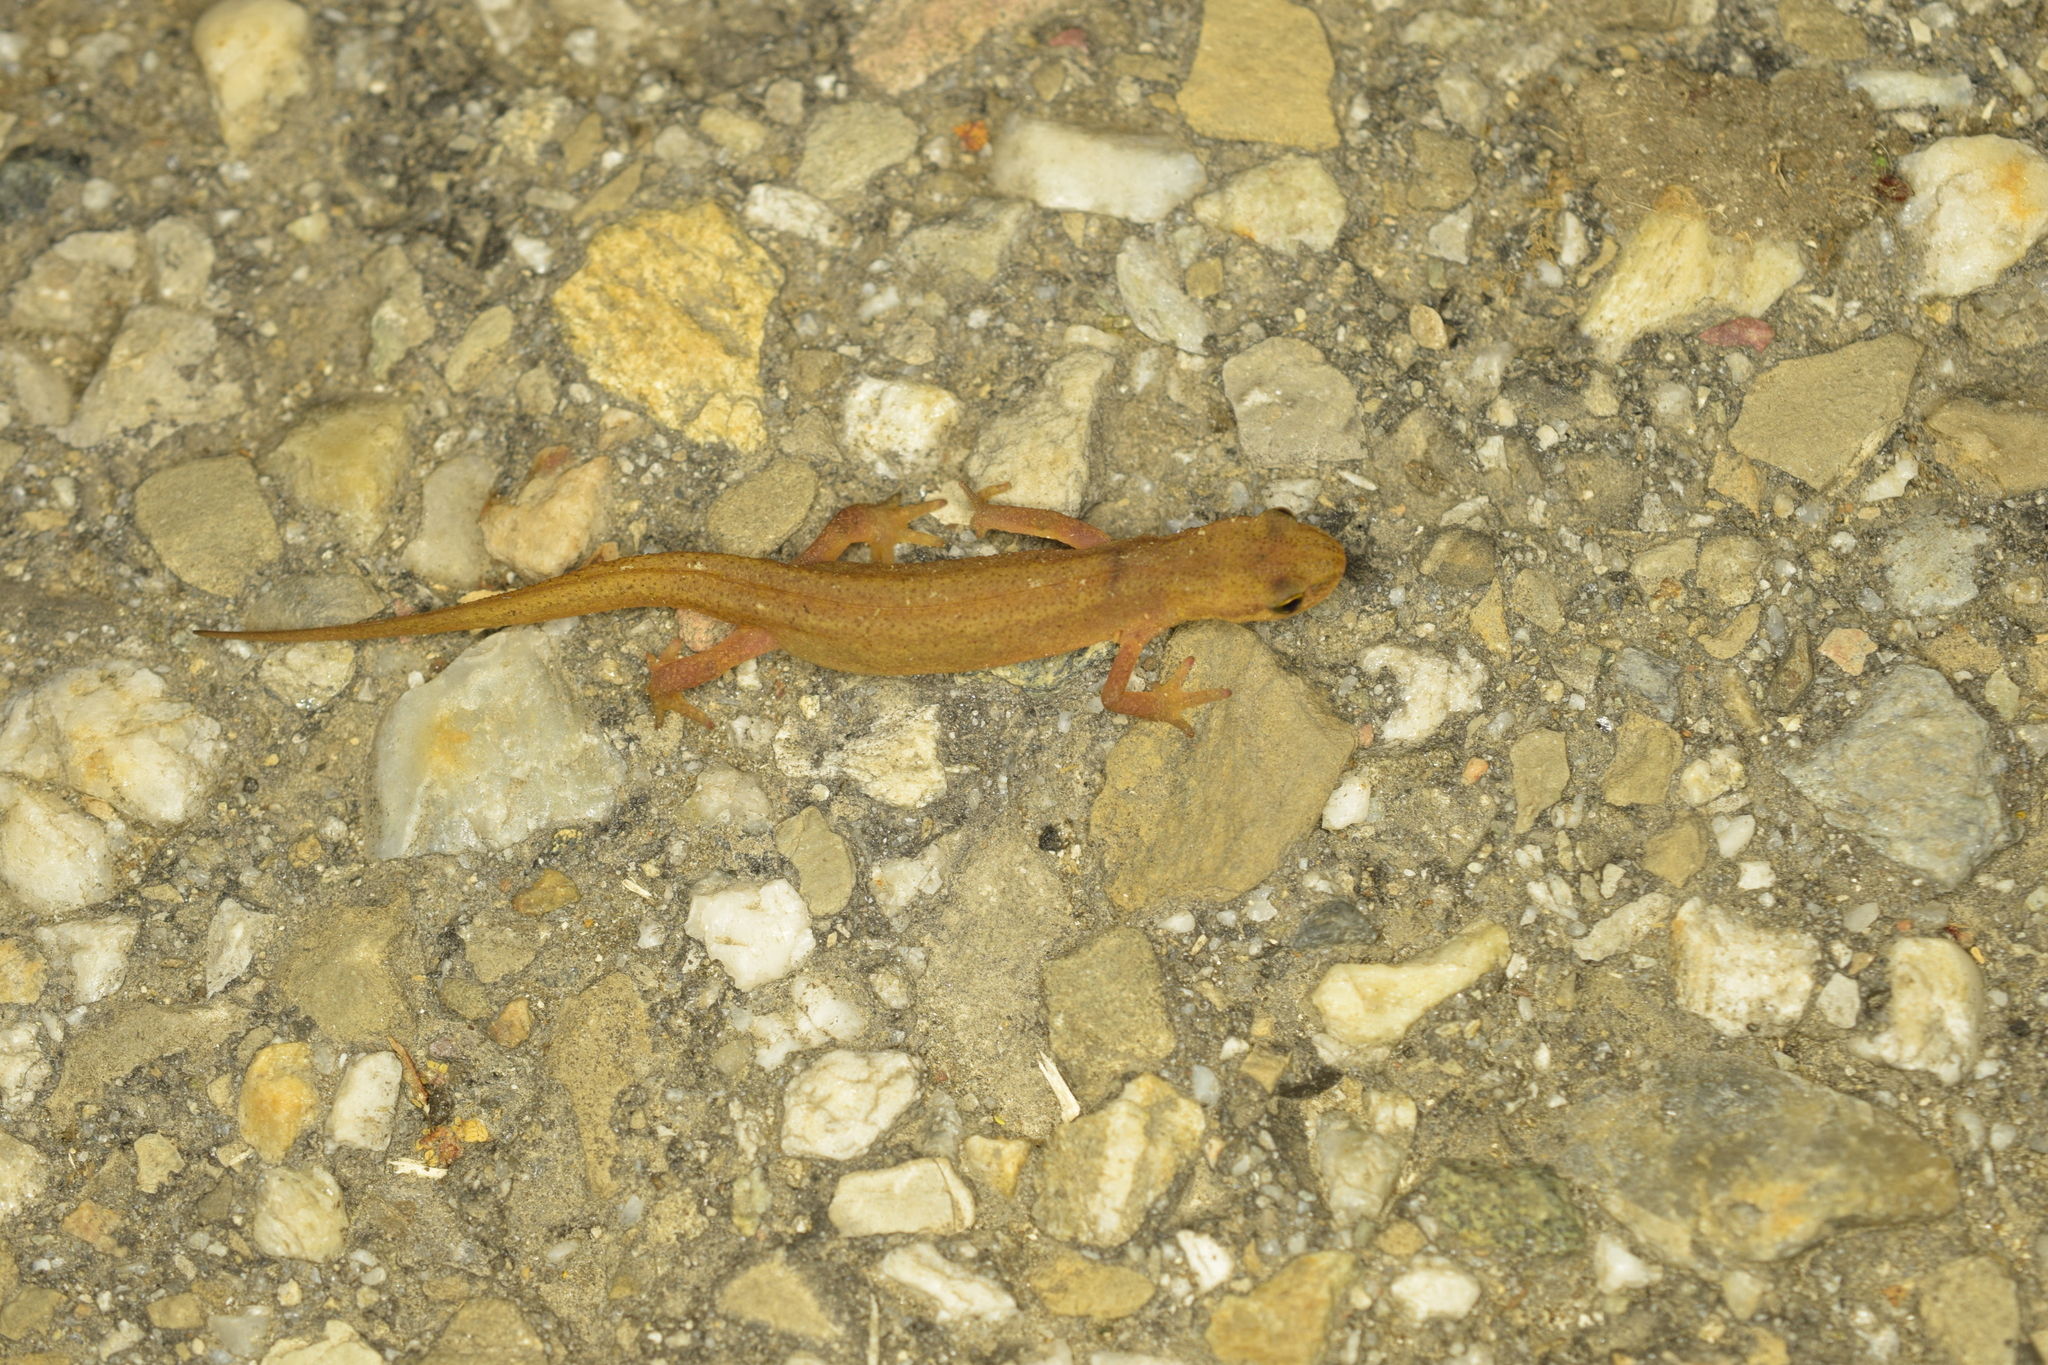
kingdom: Animalia
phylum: Chordata
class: Amphibia
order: Caudata
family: Salamandridae
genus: Lissotriton
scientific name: Lissotriton vulgaris
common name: Smooth newt
